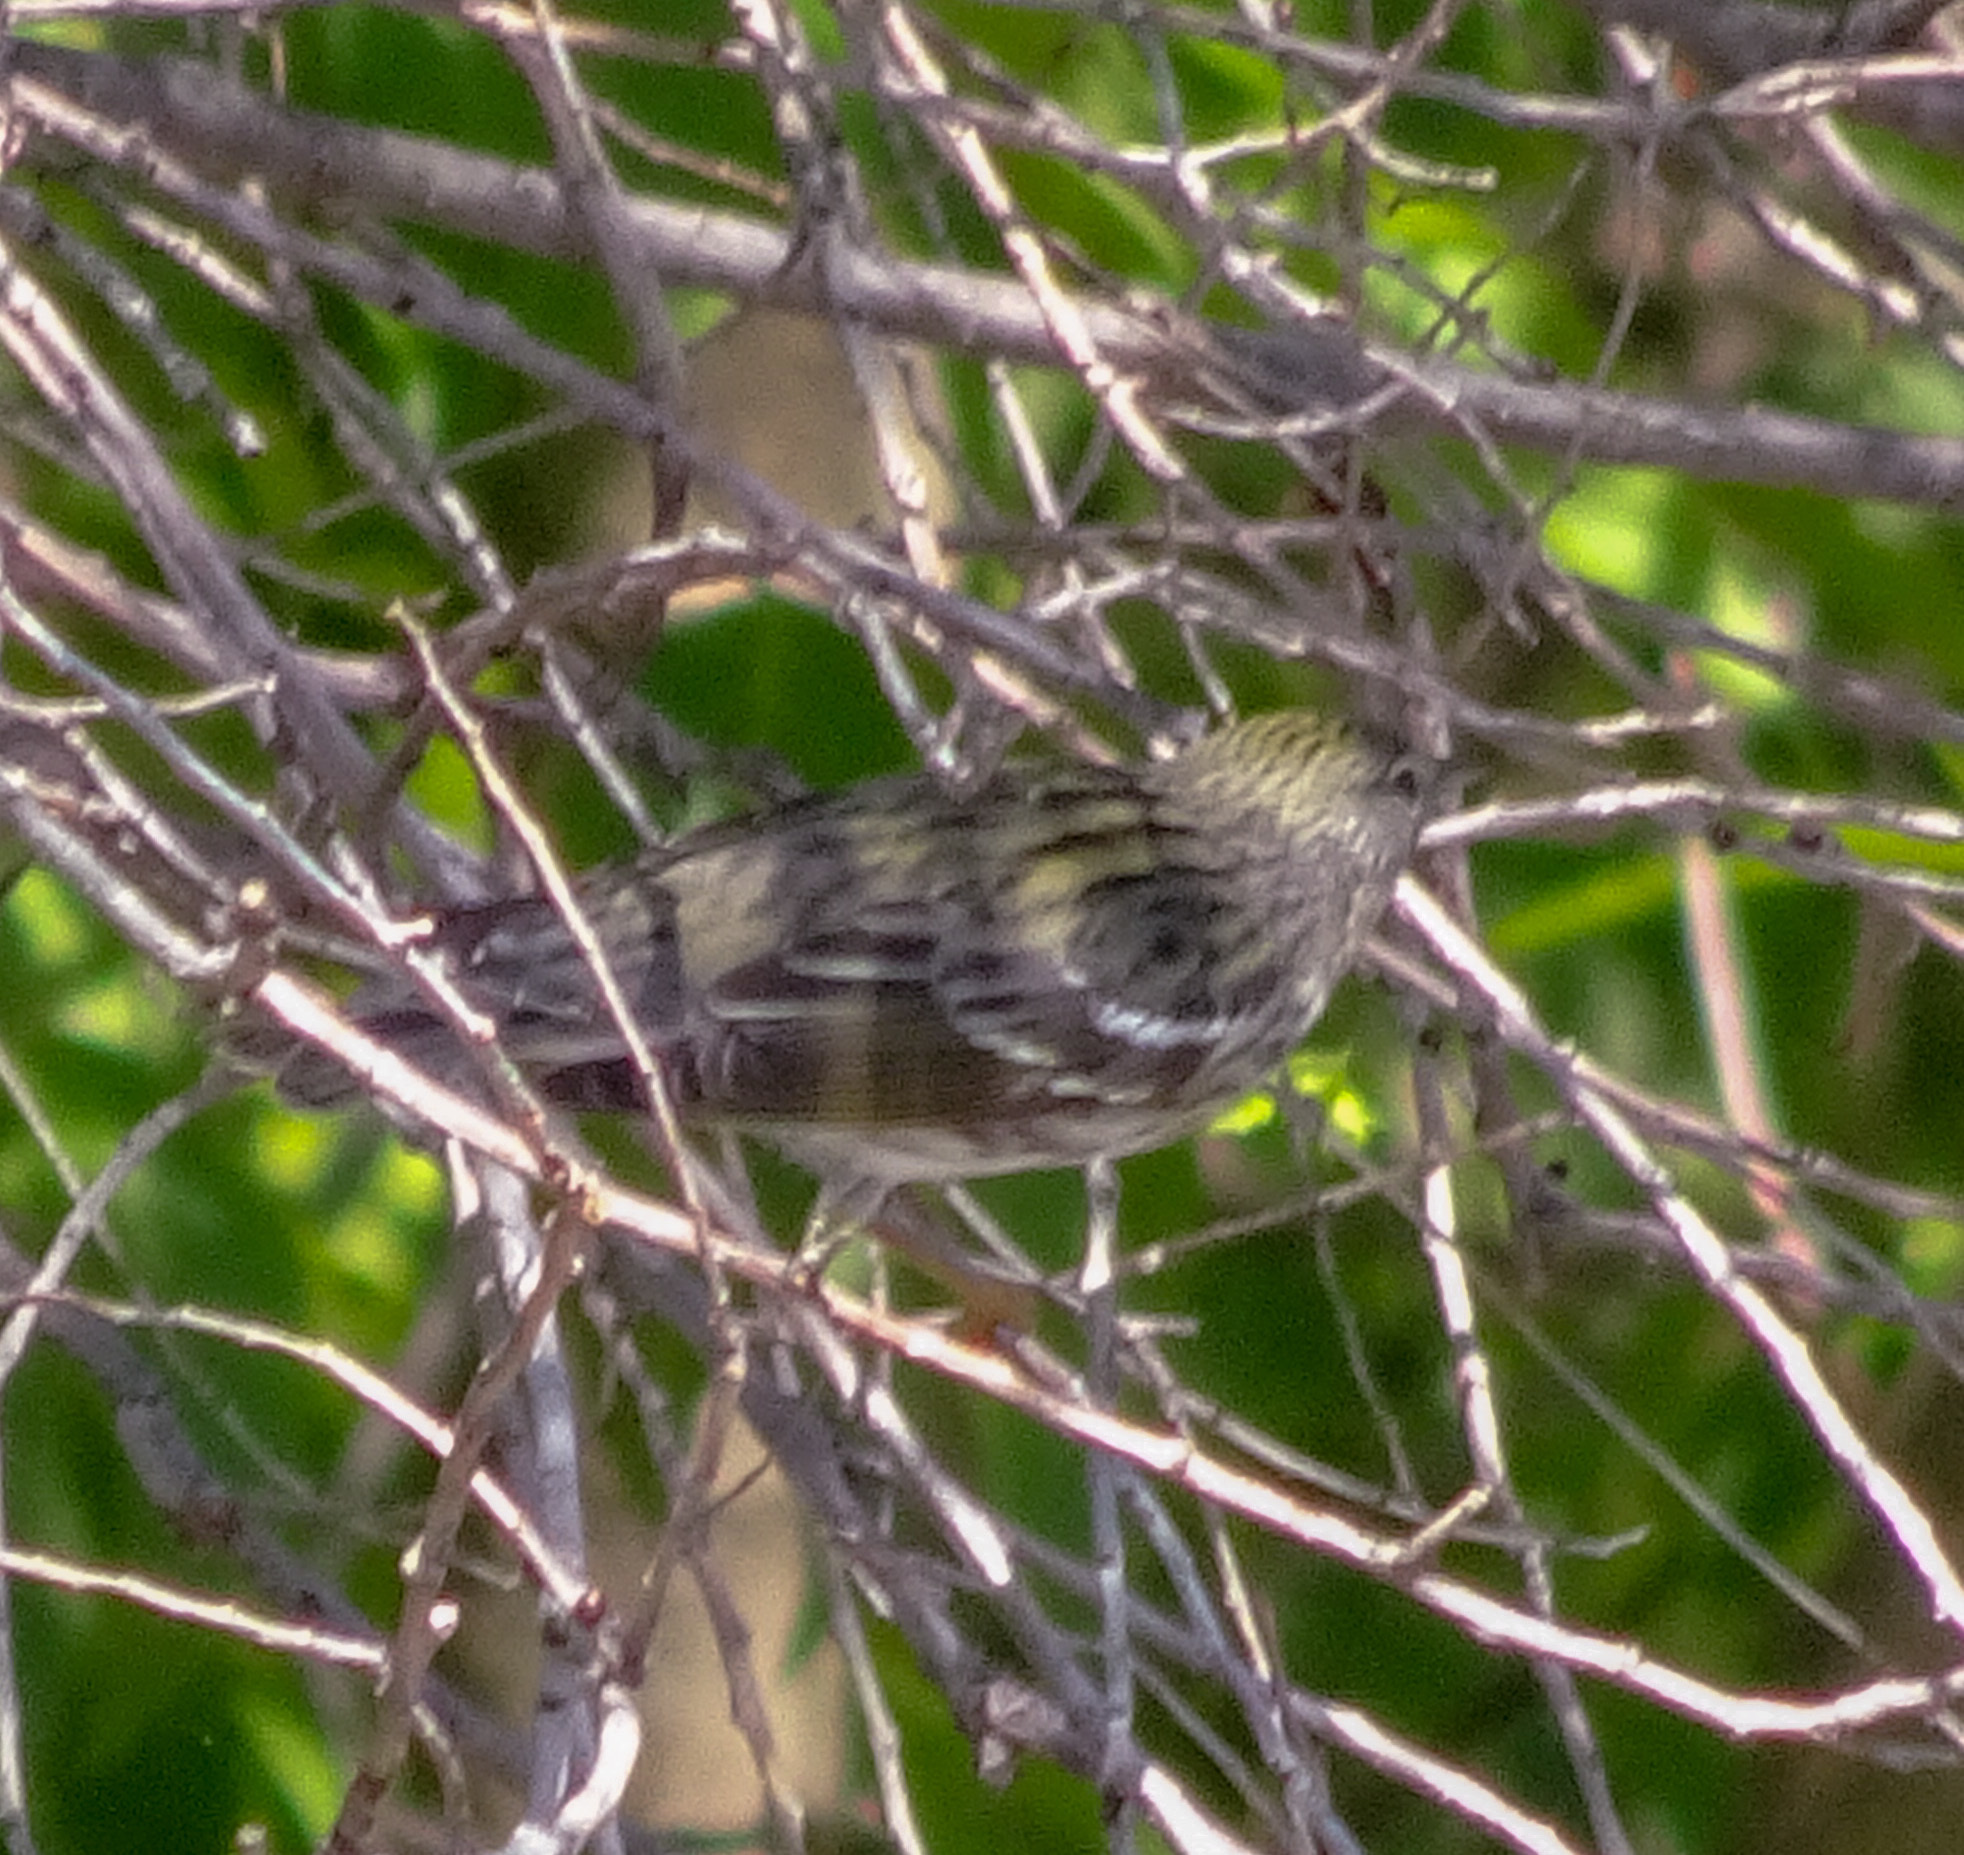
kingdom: Animalia
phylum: Chordata
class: Aves
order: Passeriformes
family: Parulidae
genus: Setophaga
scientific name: Setophaga striata
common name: Blackpoll warbler
